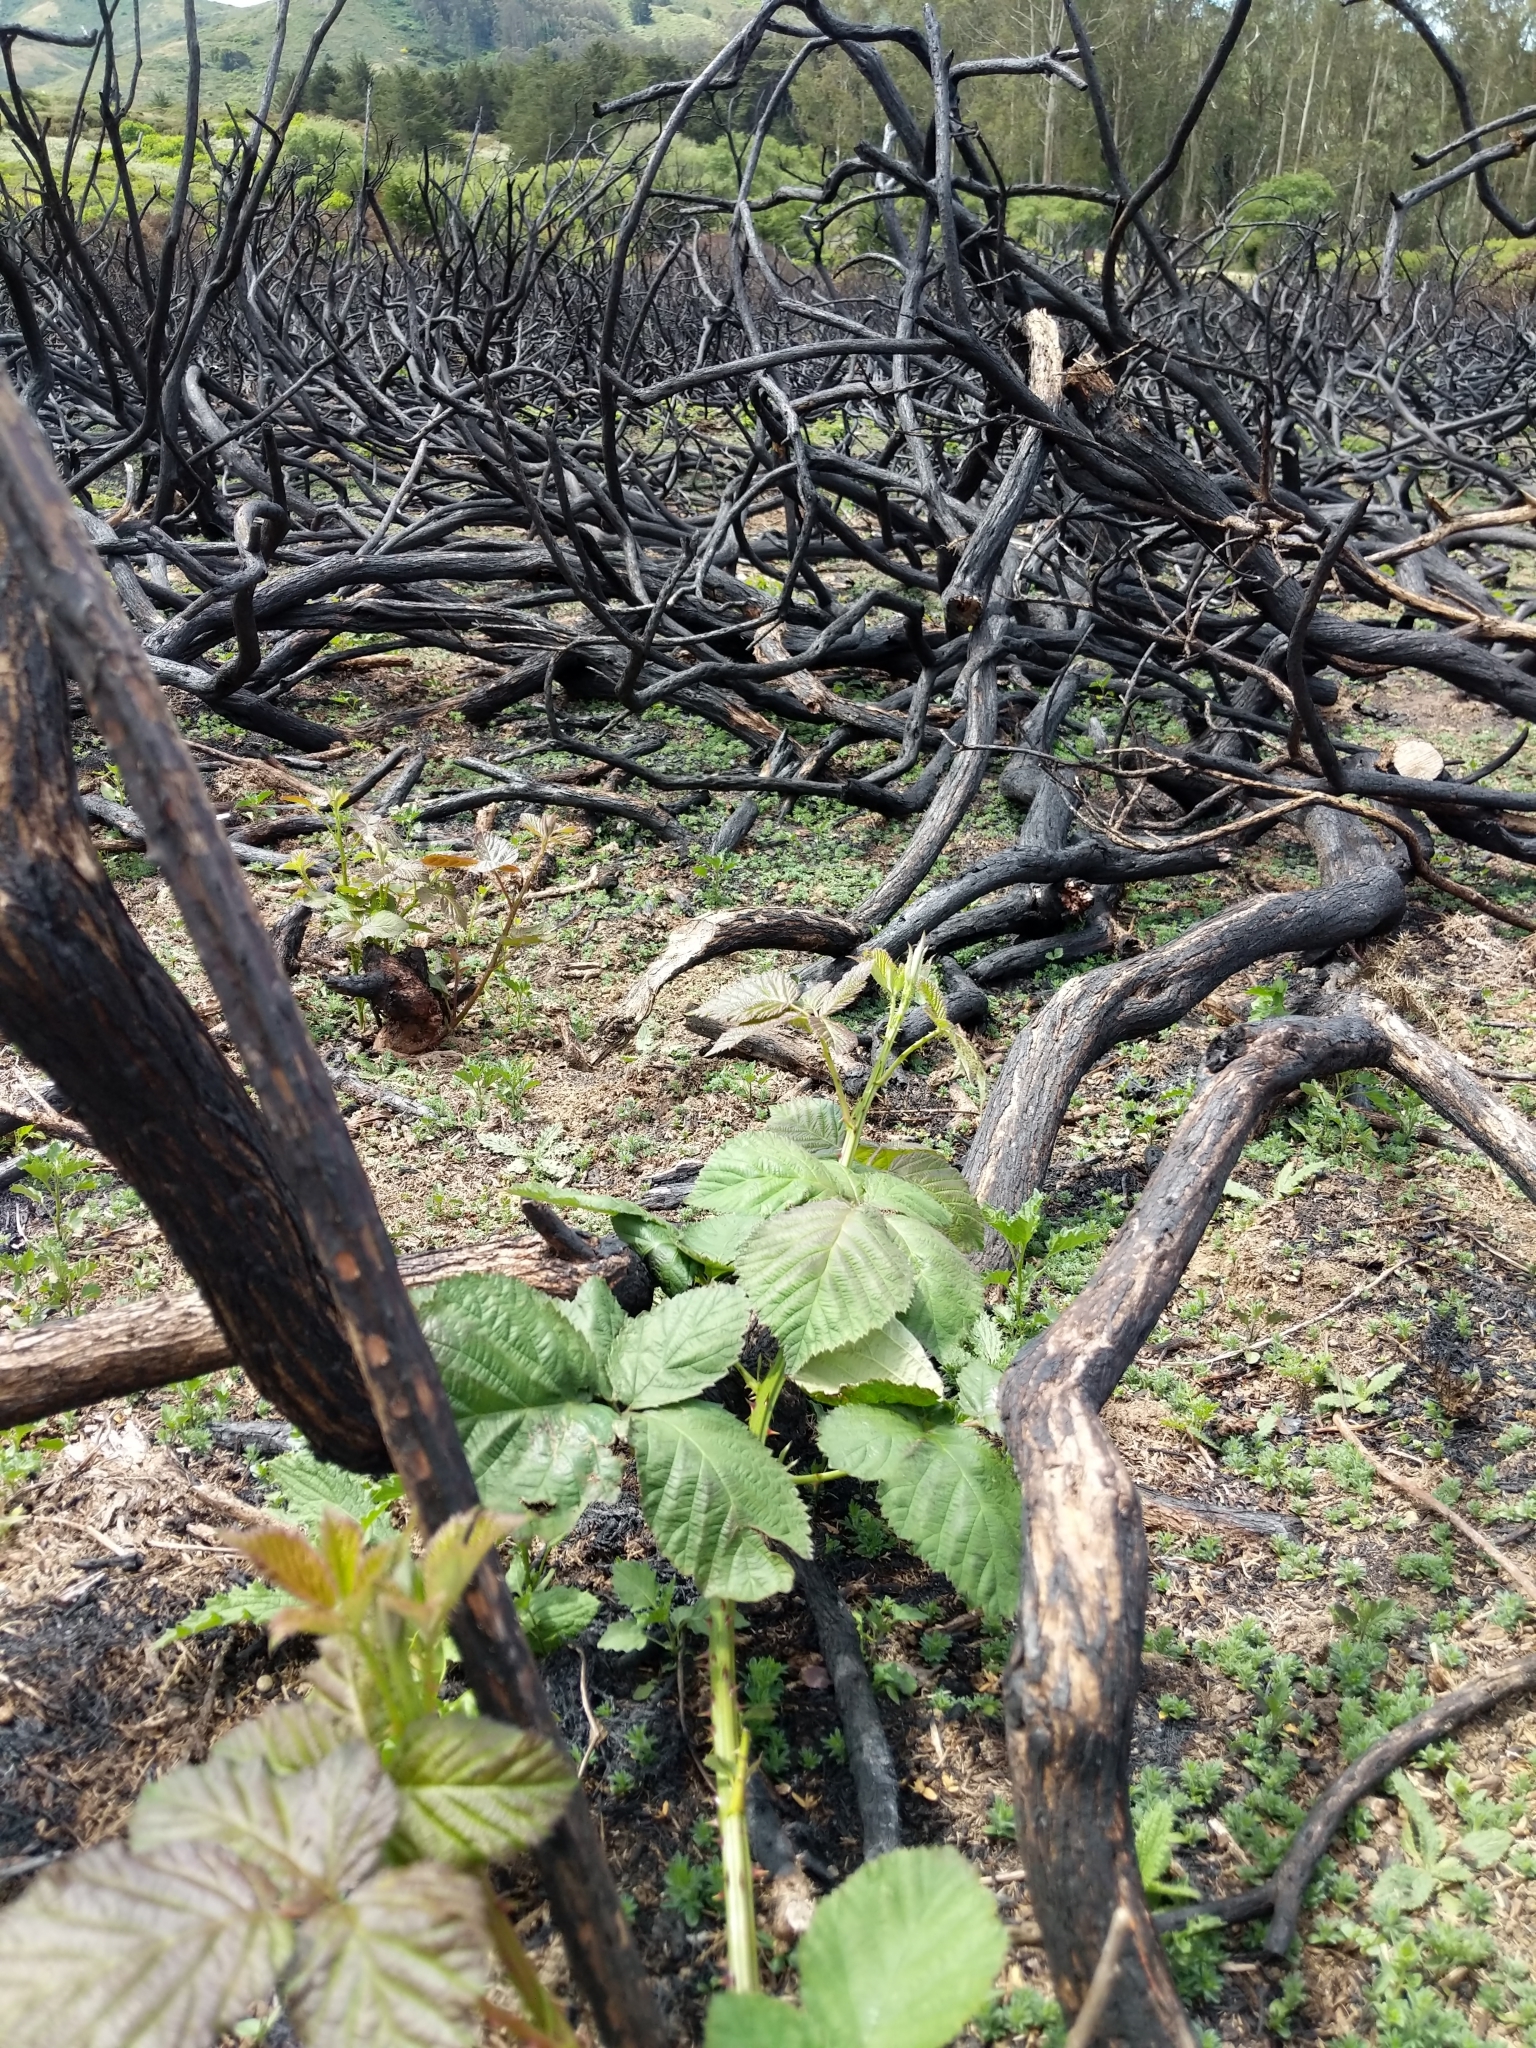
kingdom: Plantae
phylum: Tracheophyta
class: Magnoliopsida
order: Rosales
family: Rosaceae
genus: Rubus
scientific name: Rubus armeniacus
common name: Himalayan blackberry
